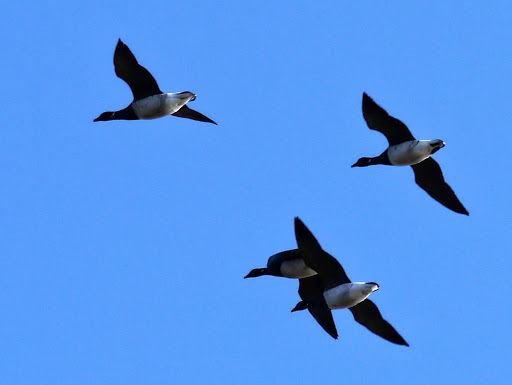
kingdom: Animalia
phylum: Chordata
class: Aves
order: Anseriformes
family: Anatidae
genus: Branta
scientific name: Branta bernicla
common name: Brant goose
